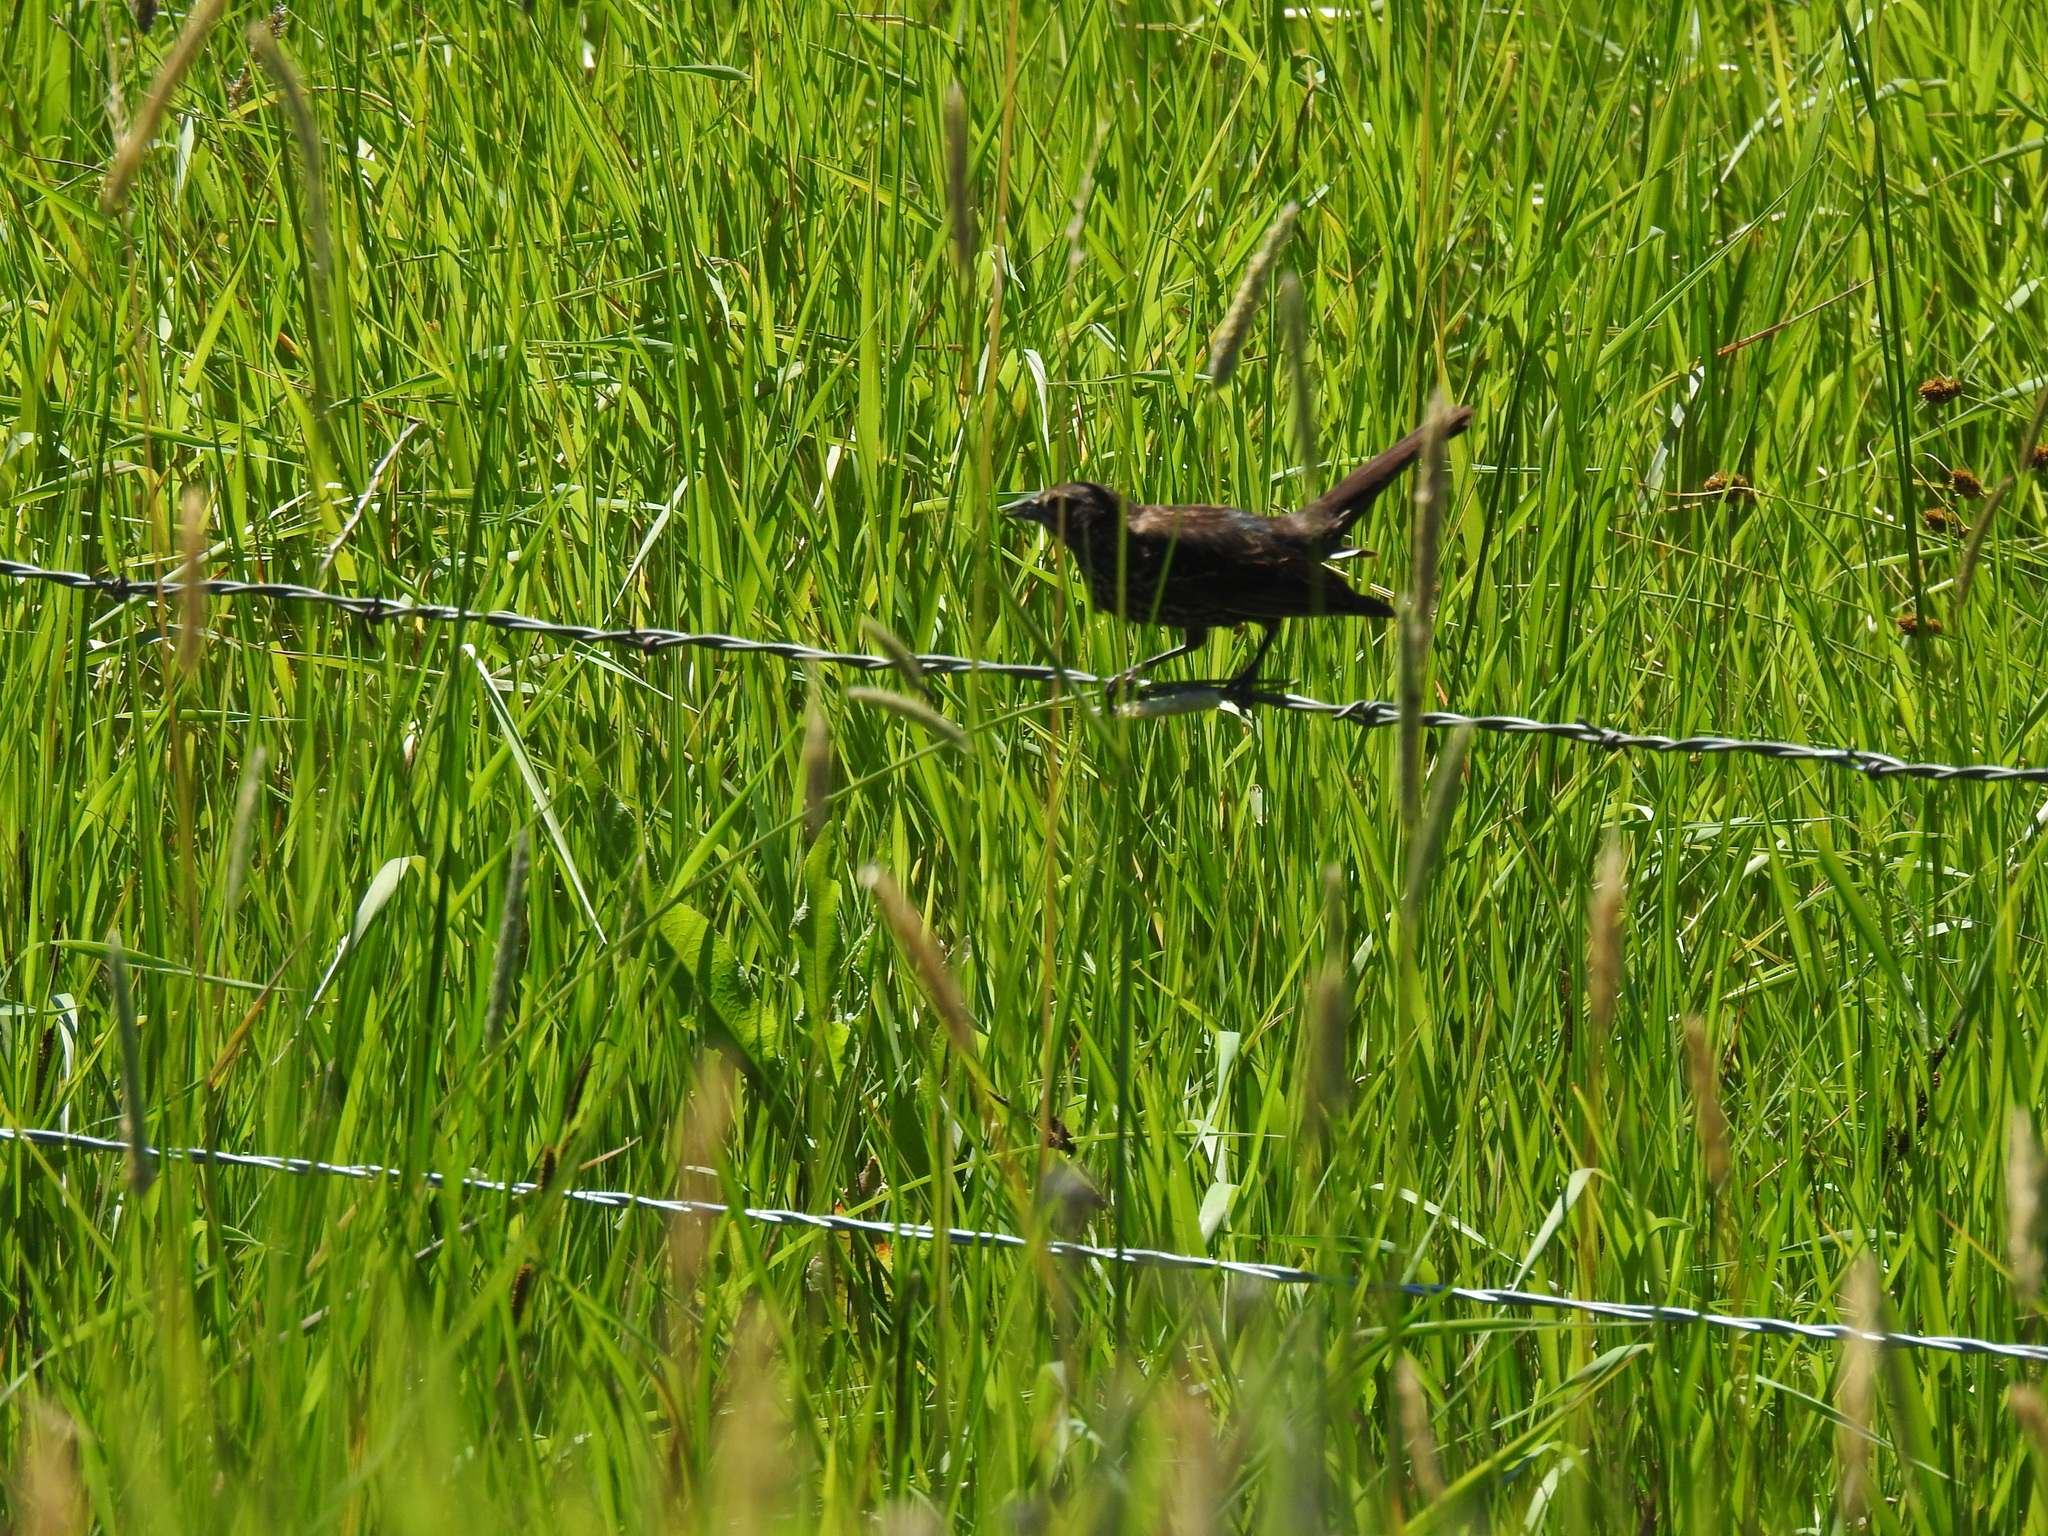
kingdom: Animalia
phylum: Chordata
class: Aves
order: Passeriformes
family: Icteridae
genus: Agelaius
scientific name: Agelaius phoeniceus
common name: Red-winged blackbird
